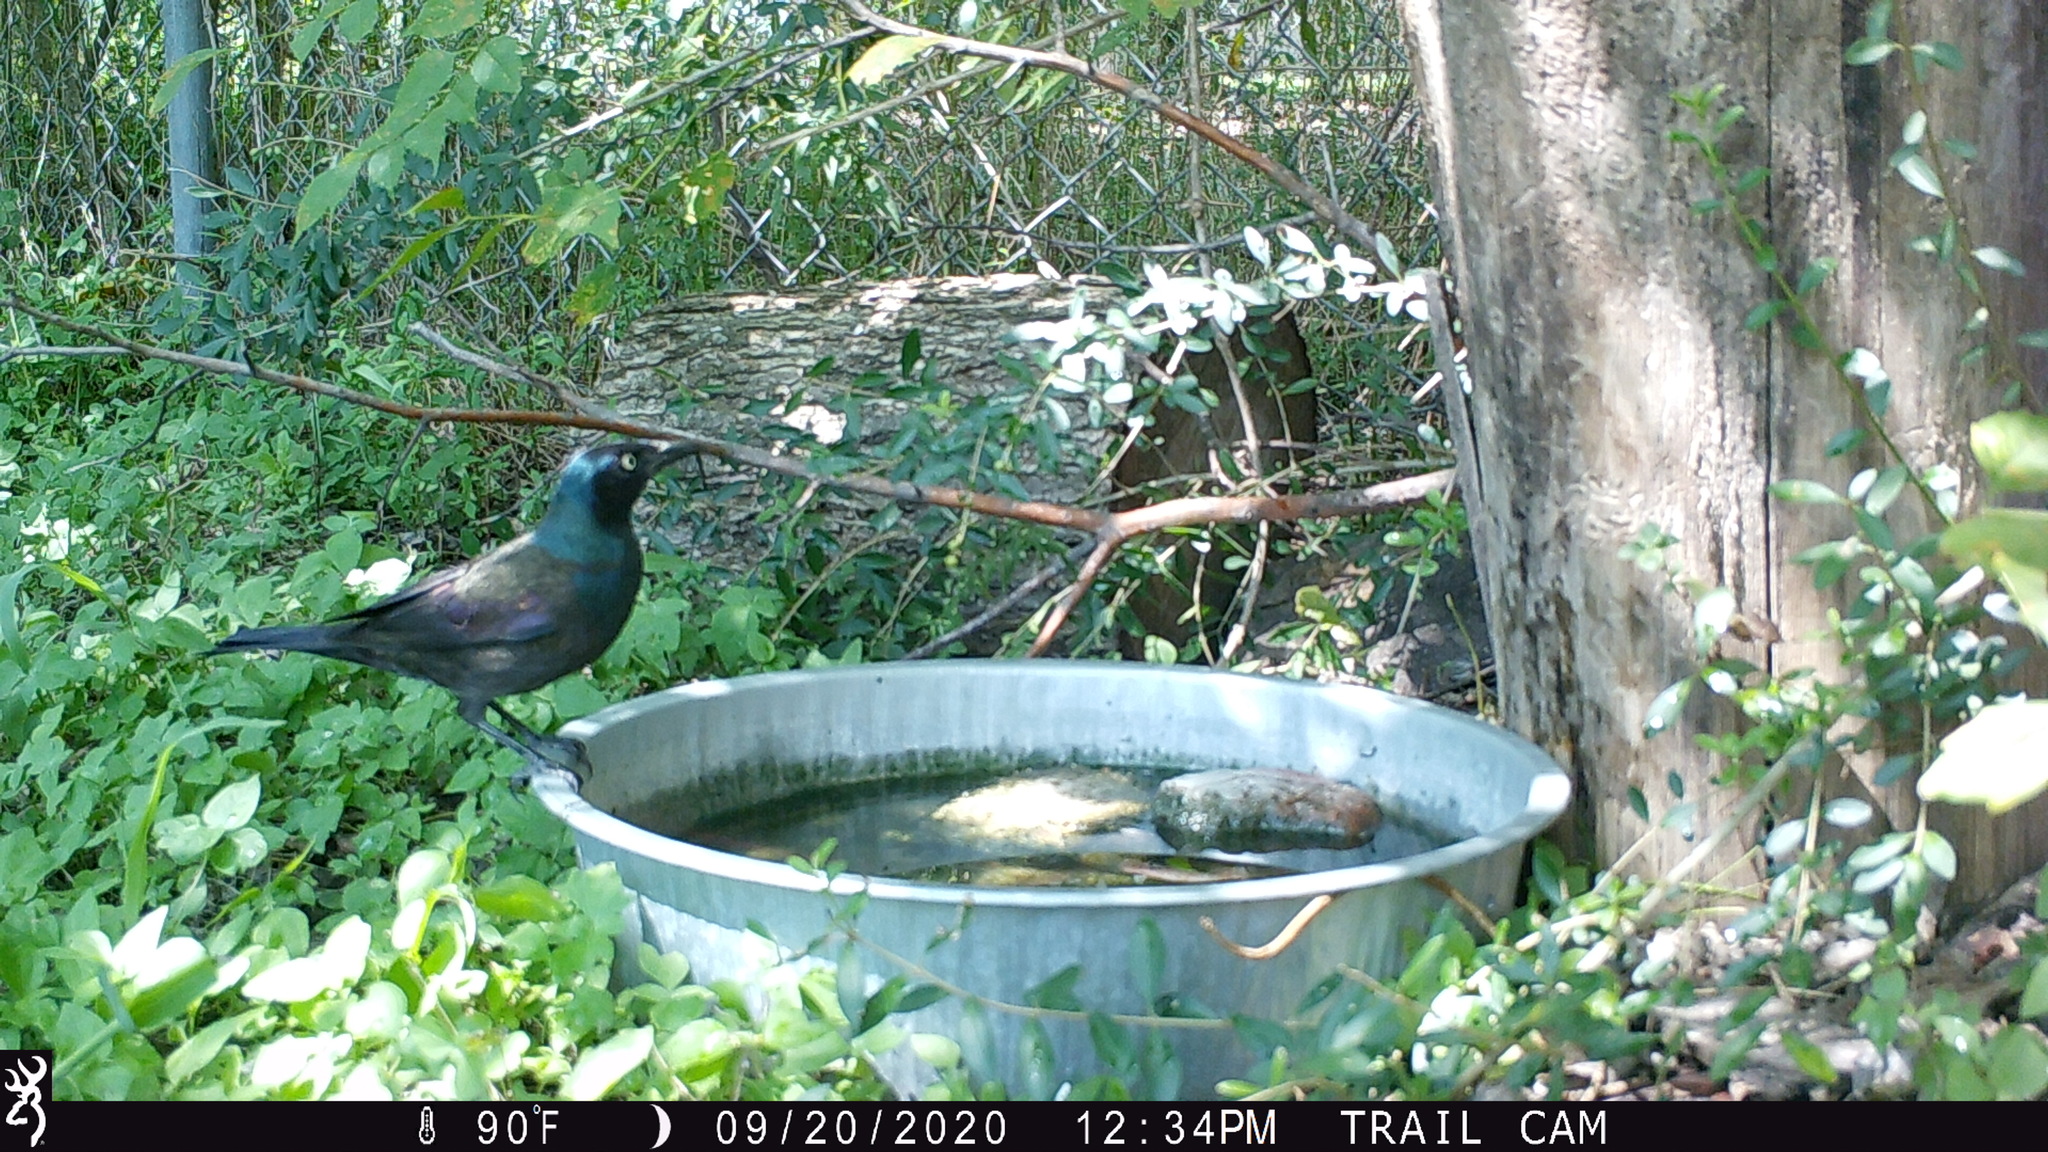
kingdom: Animalia
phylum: Chordata
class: Aves
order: Passeriformes
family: Icteridae
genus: Quiscalus
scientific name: Quiscalus quiscula
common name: Common grackle
